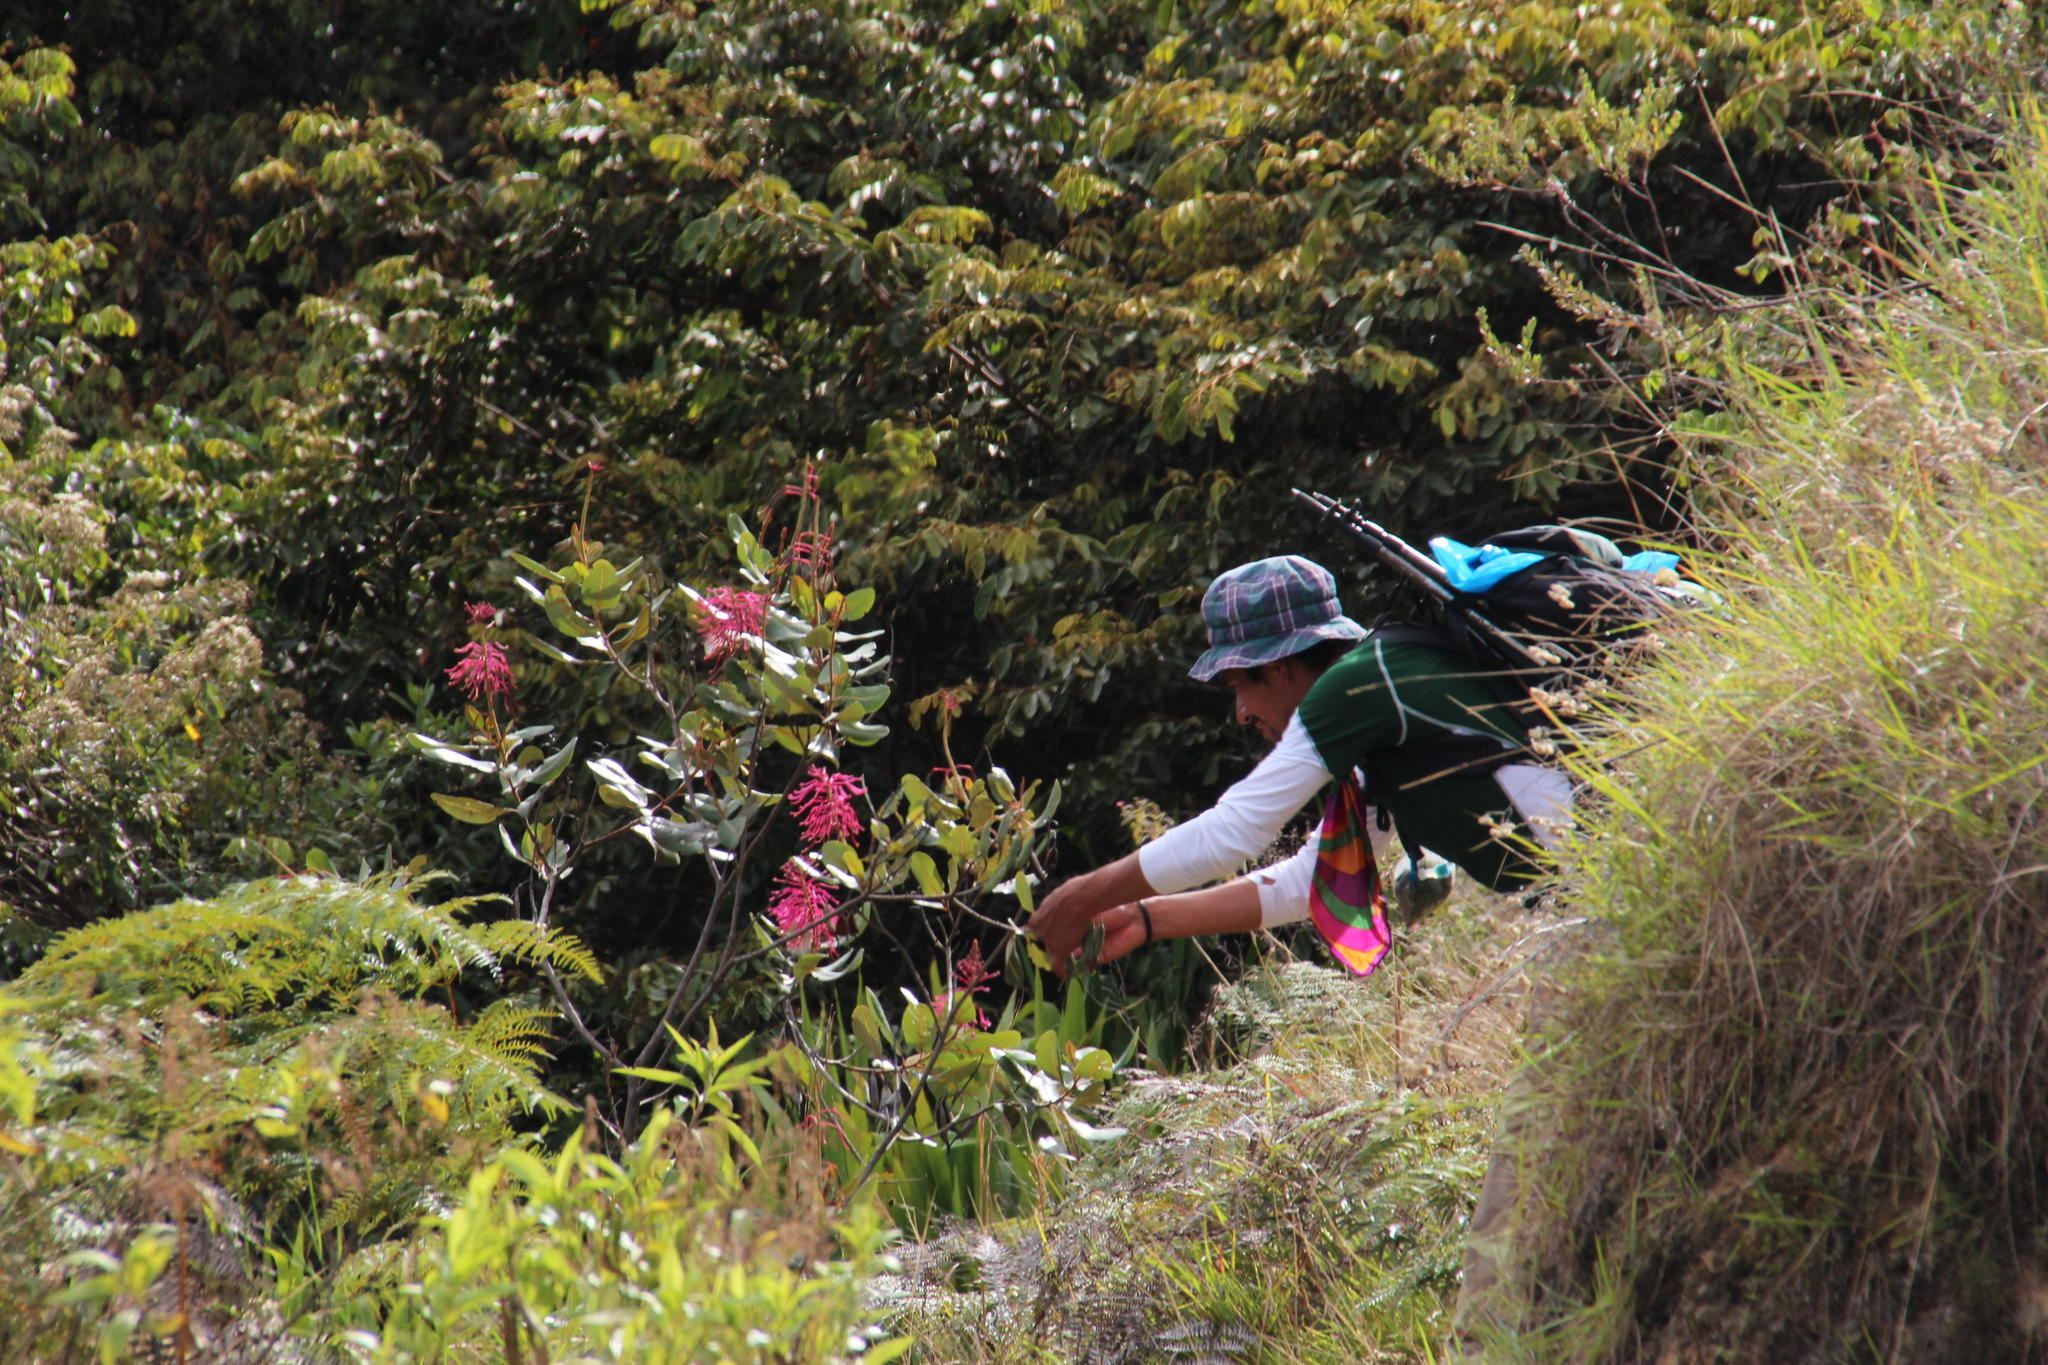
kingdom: Plantae
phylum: Tracheophyta
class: Magnoliopsida
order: Proteales
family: Proteaceae
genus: Oreocallis
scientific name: Oreocallis grandiflora
